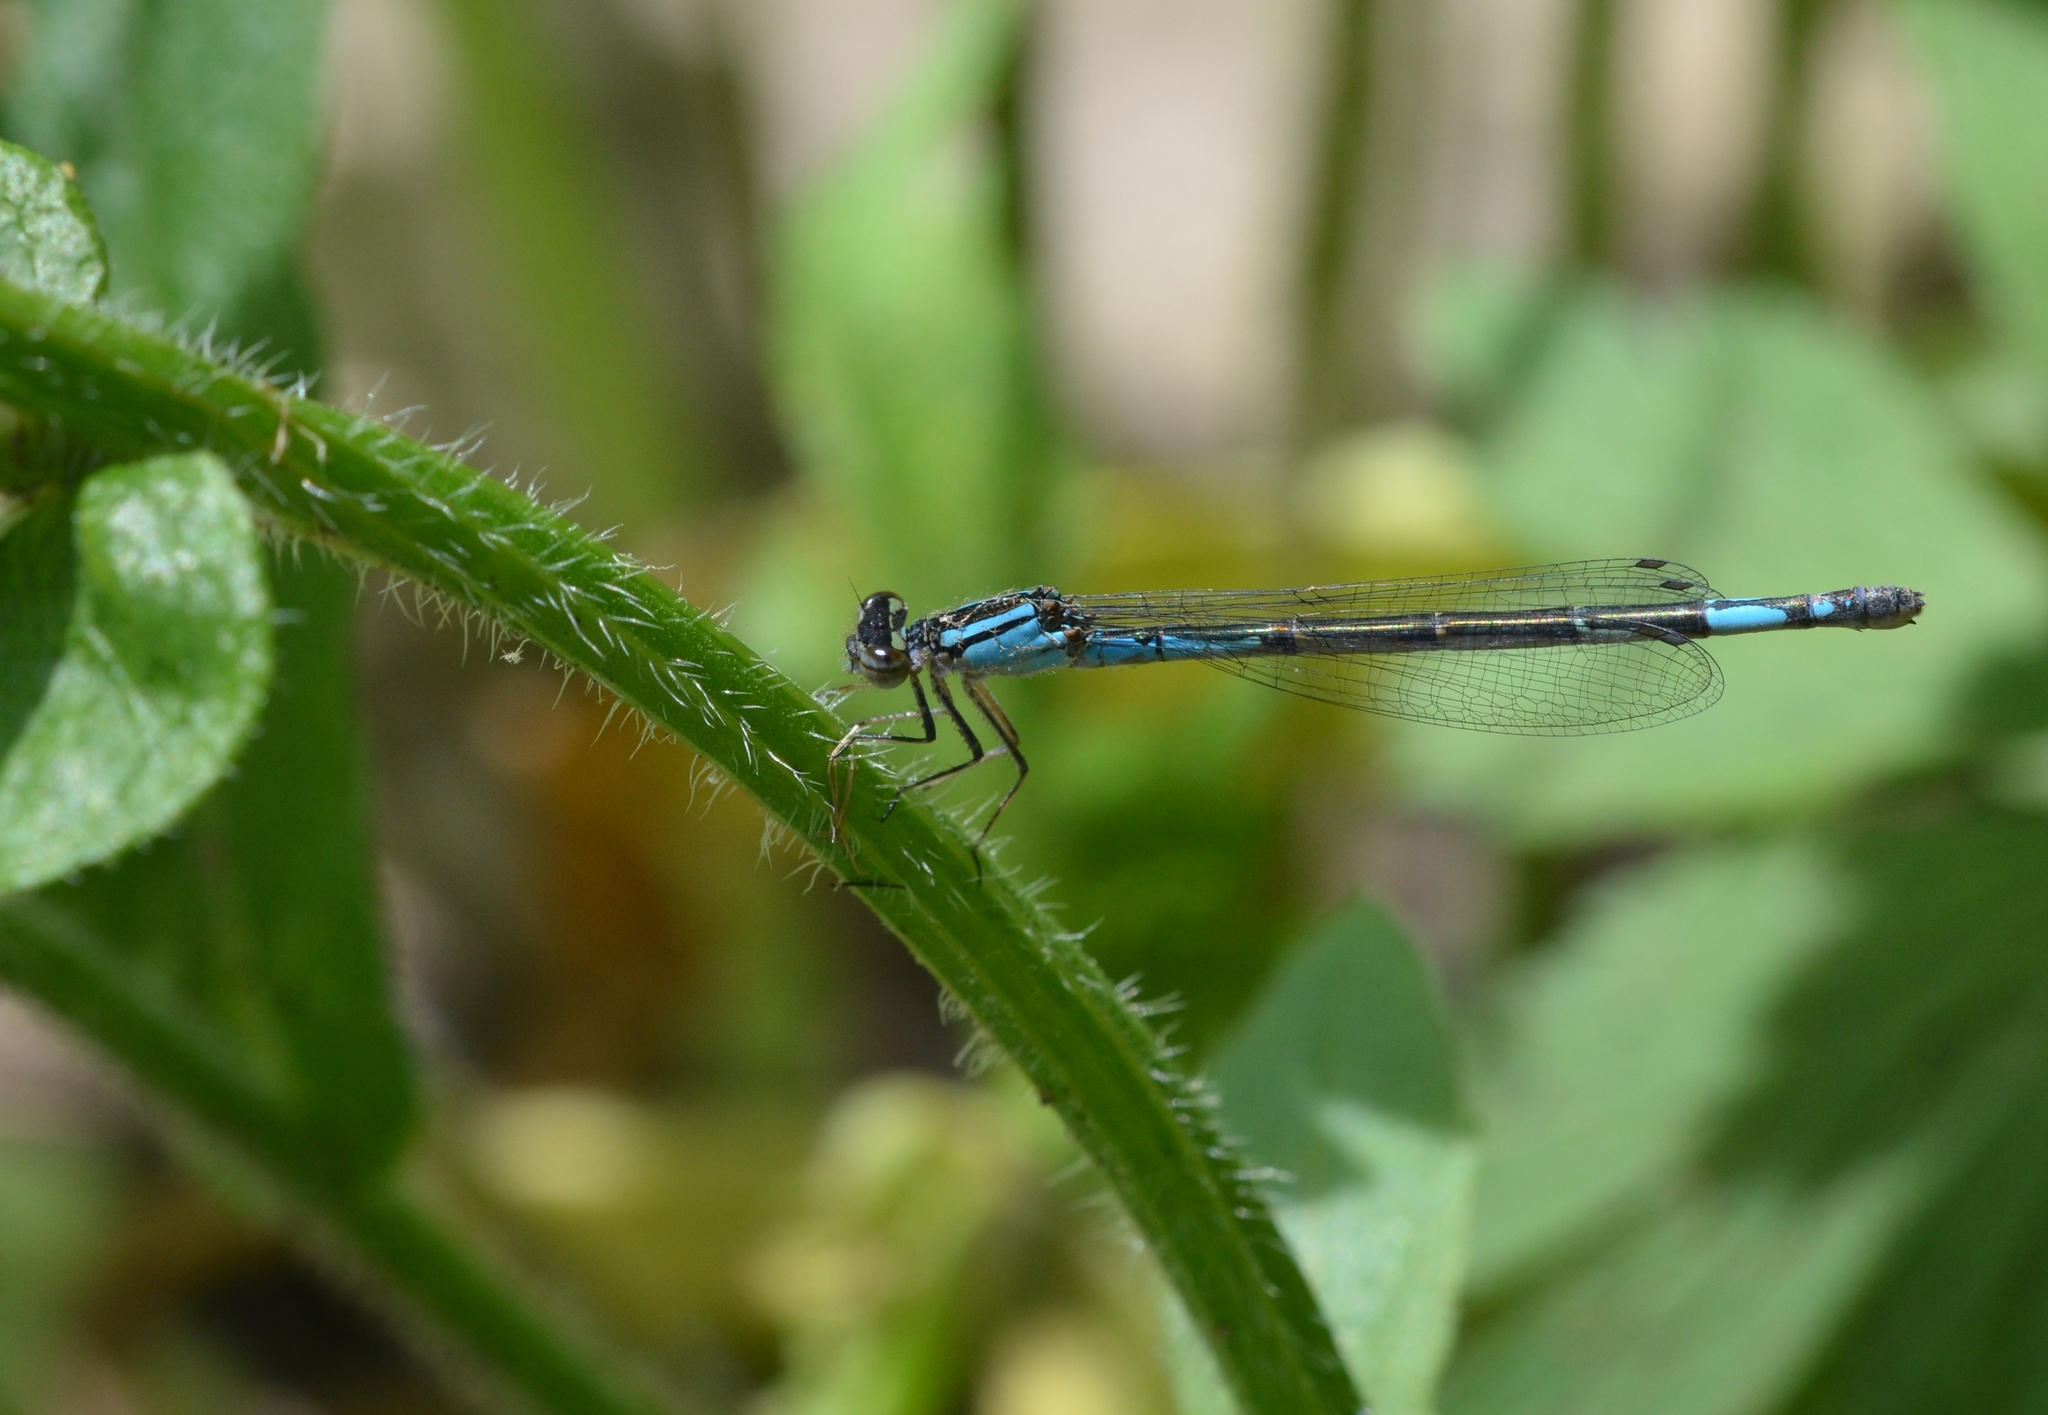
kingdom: Animalia
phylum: Arthropoda
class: Insecta
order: Odonata
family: Coenagrionidae
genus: Enallagma
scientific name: Enallagma aspersum
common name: Azure bluet
